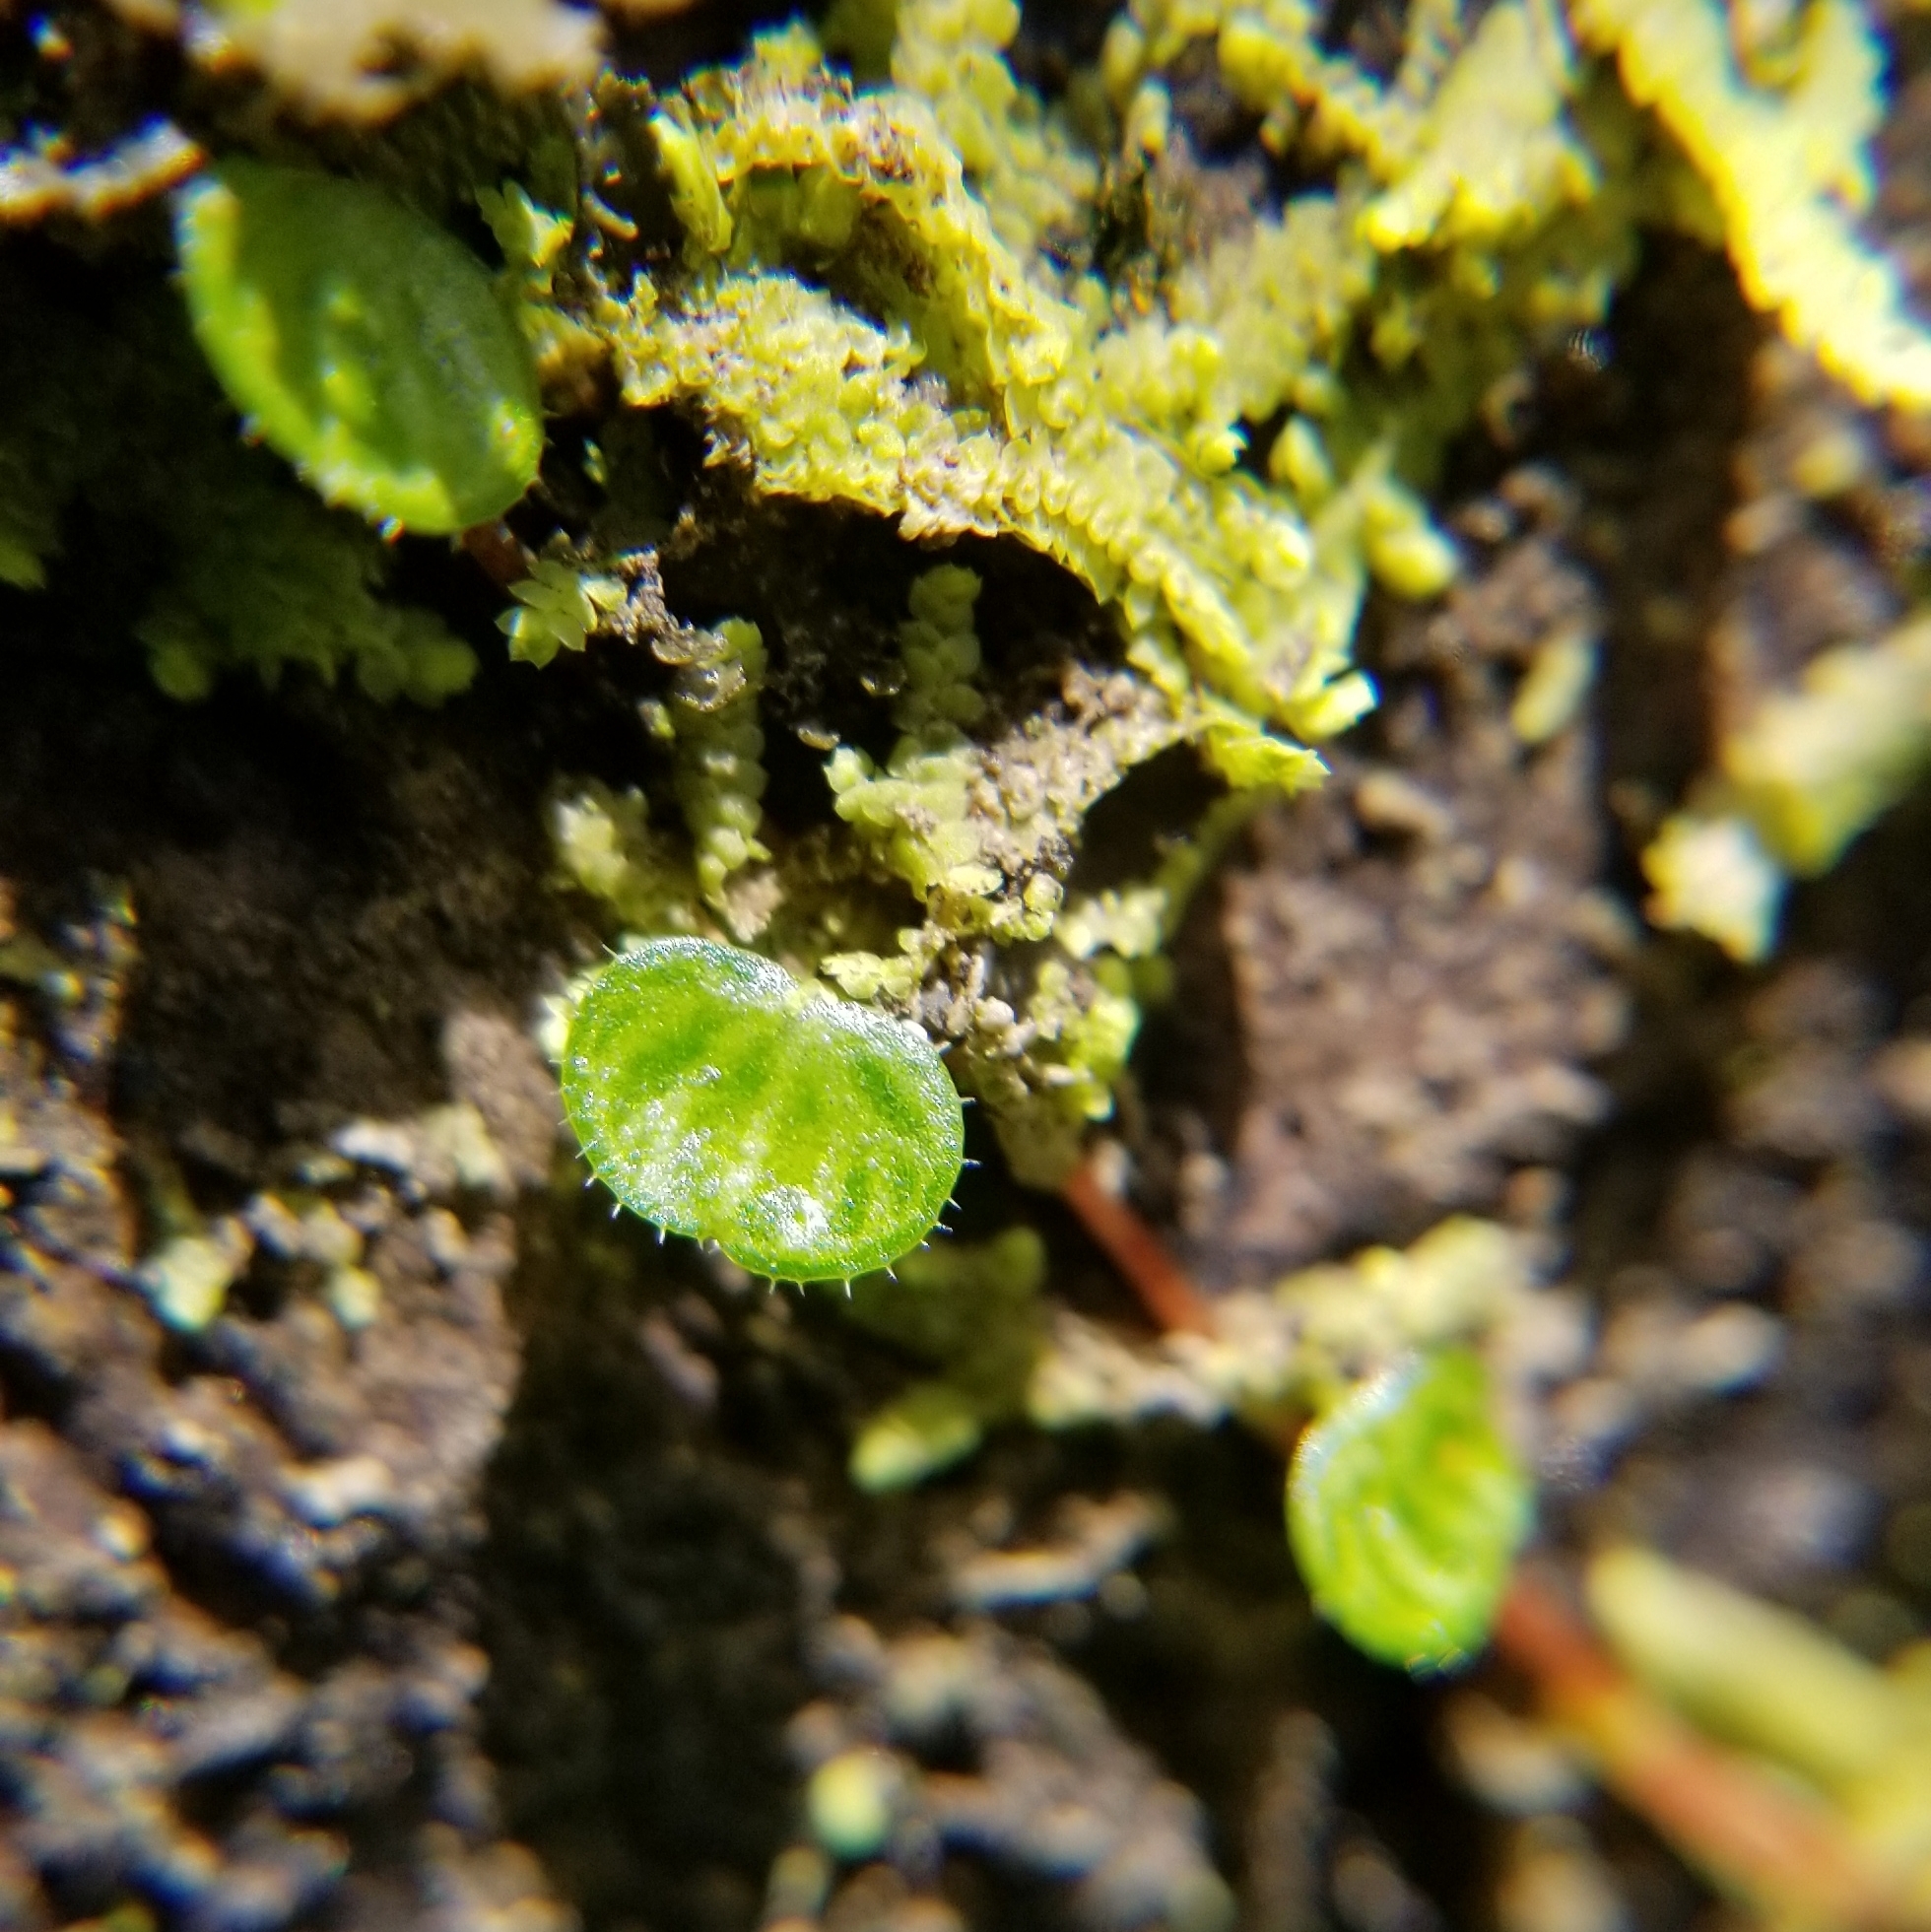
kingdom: Plantae
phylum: Tracheophyta
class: Magnoliopsida
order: Piperales
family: Piperaceae
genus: Peperomia
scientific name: Peperomia emarginella
